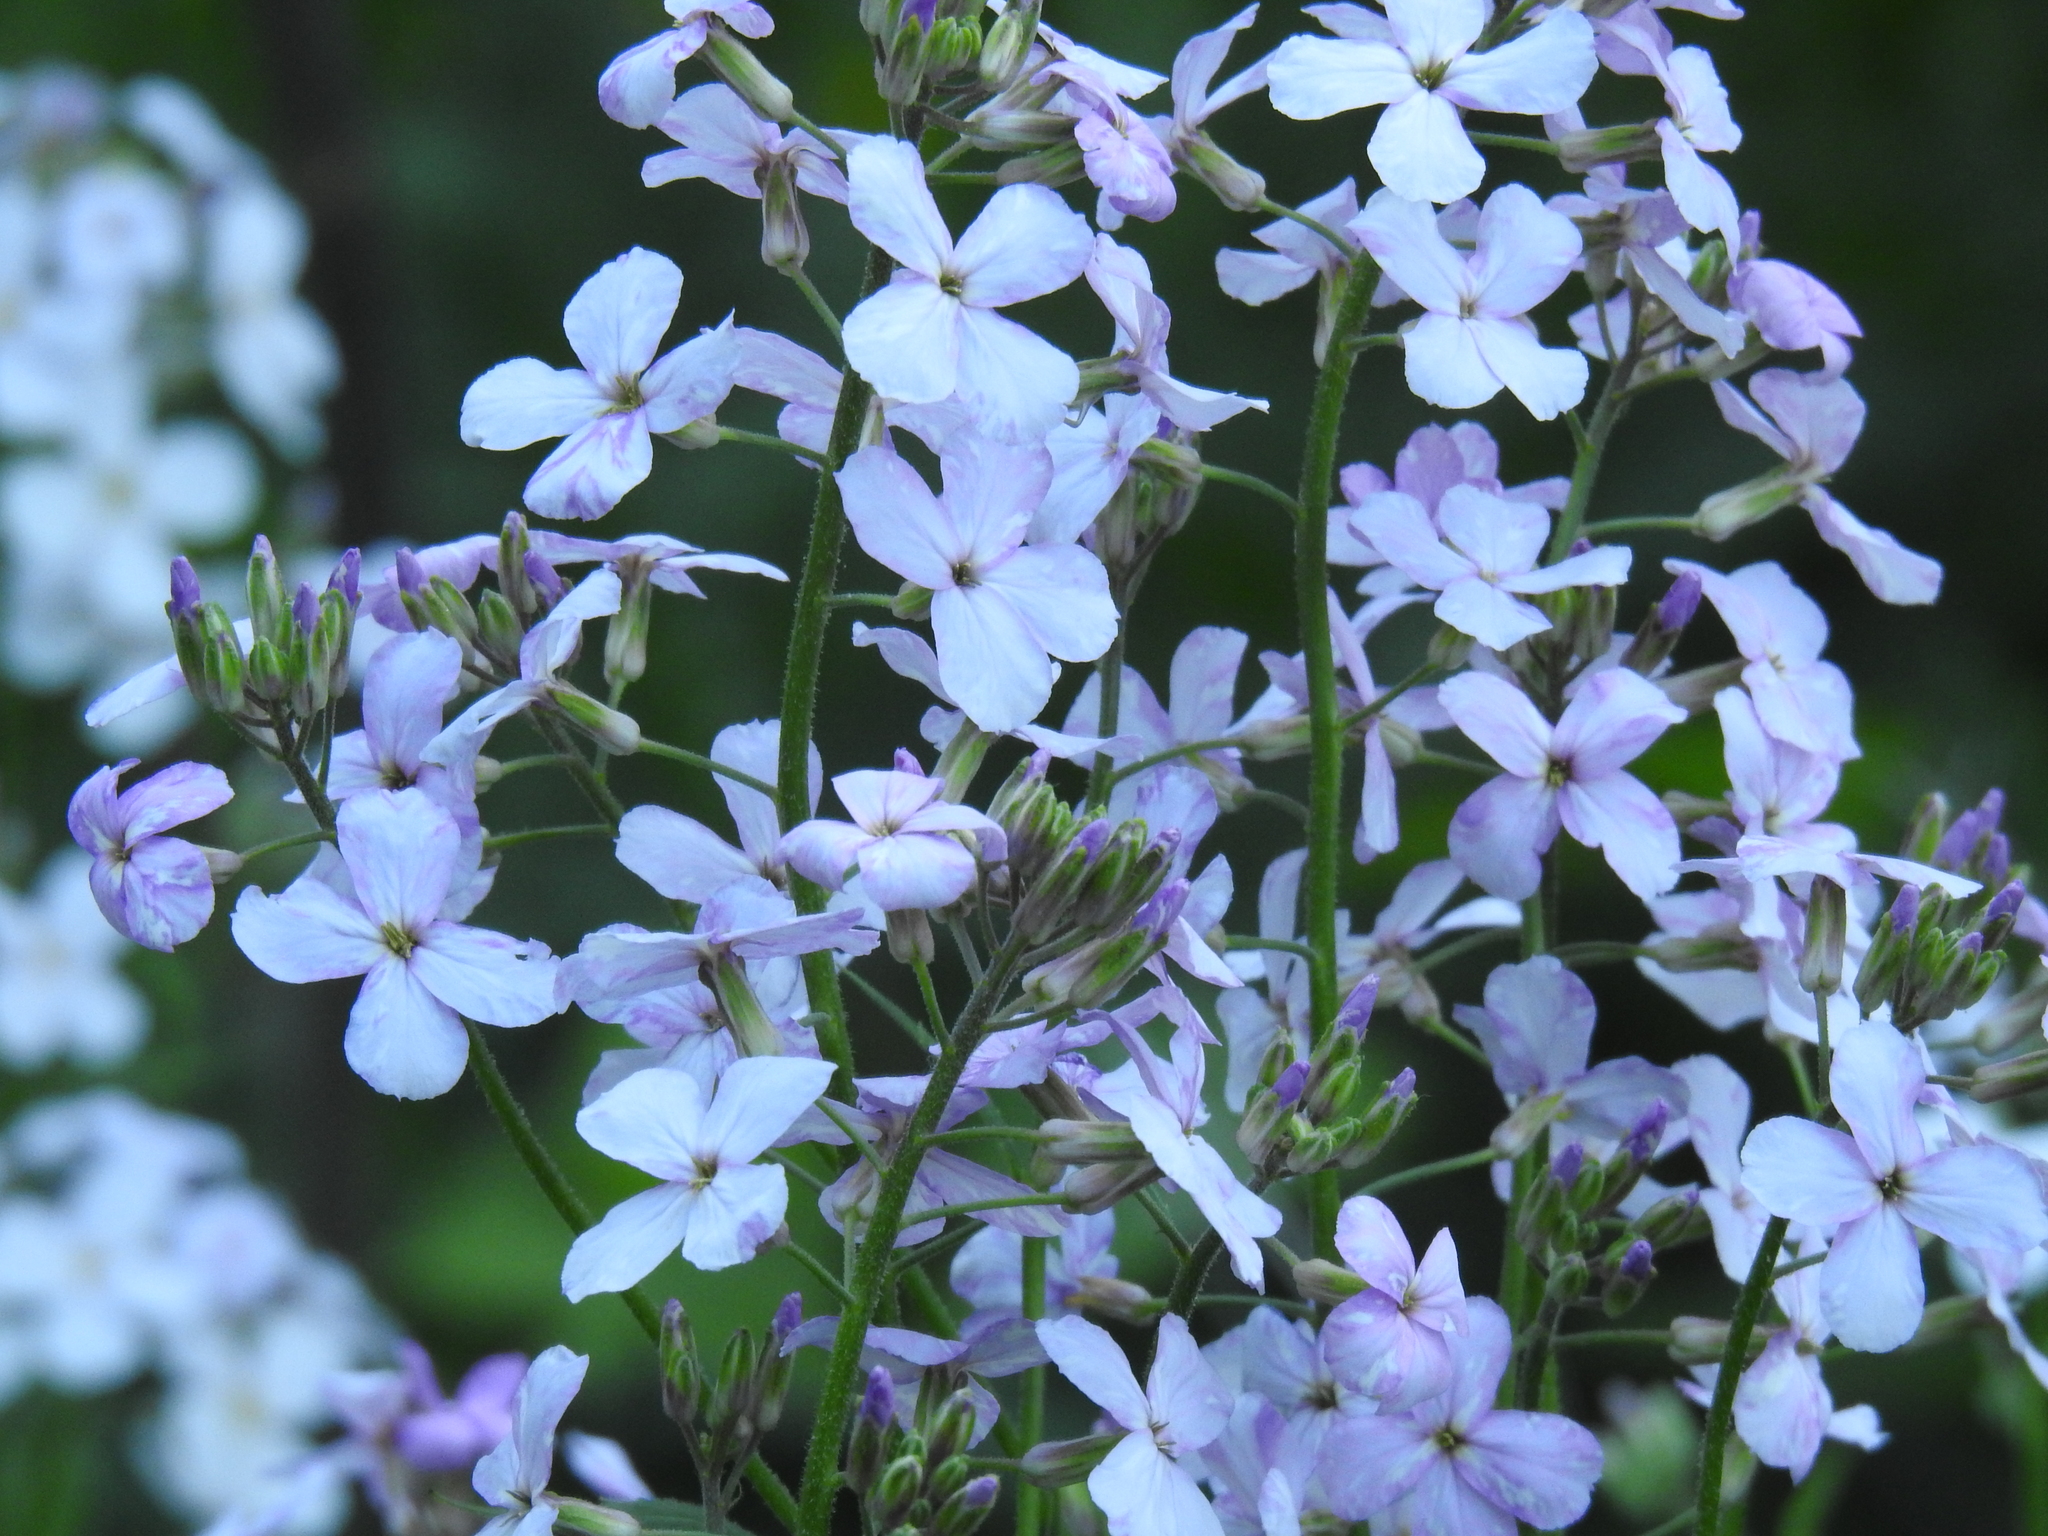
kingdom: Plantae
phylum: Tracheophyta
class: Magnoliopsida
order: Brassicales
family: Brassicaceae
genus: Hesperis
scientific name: Hesperis matronalis
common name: Dame's-violet
